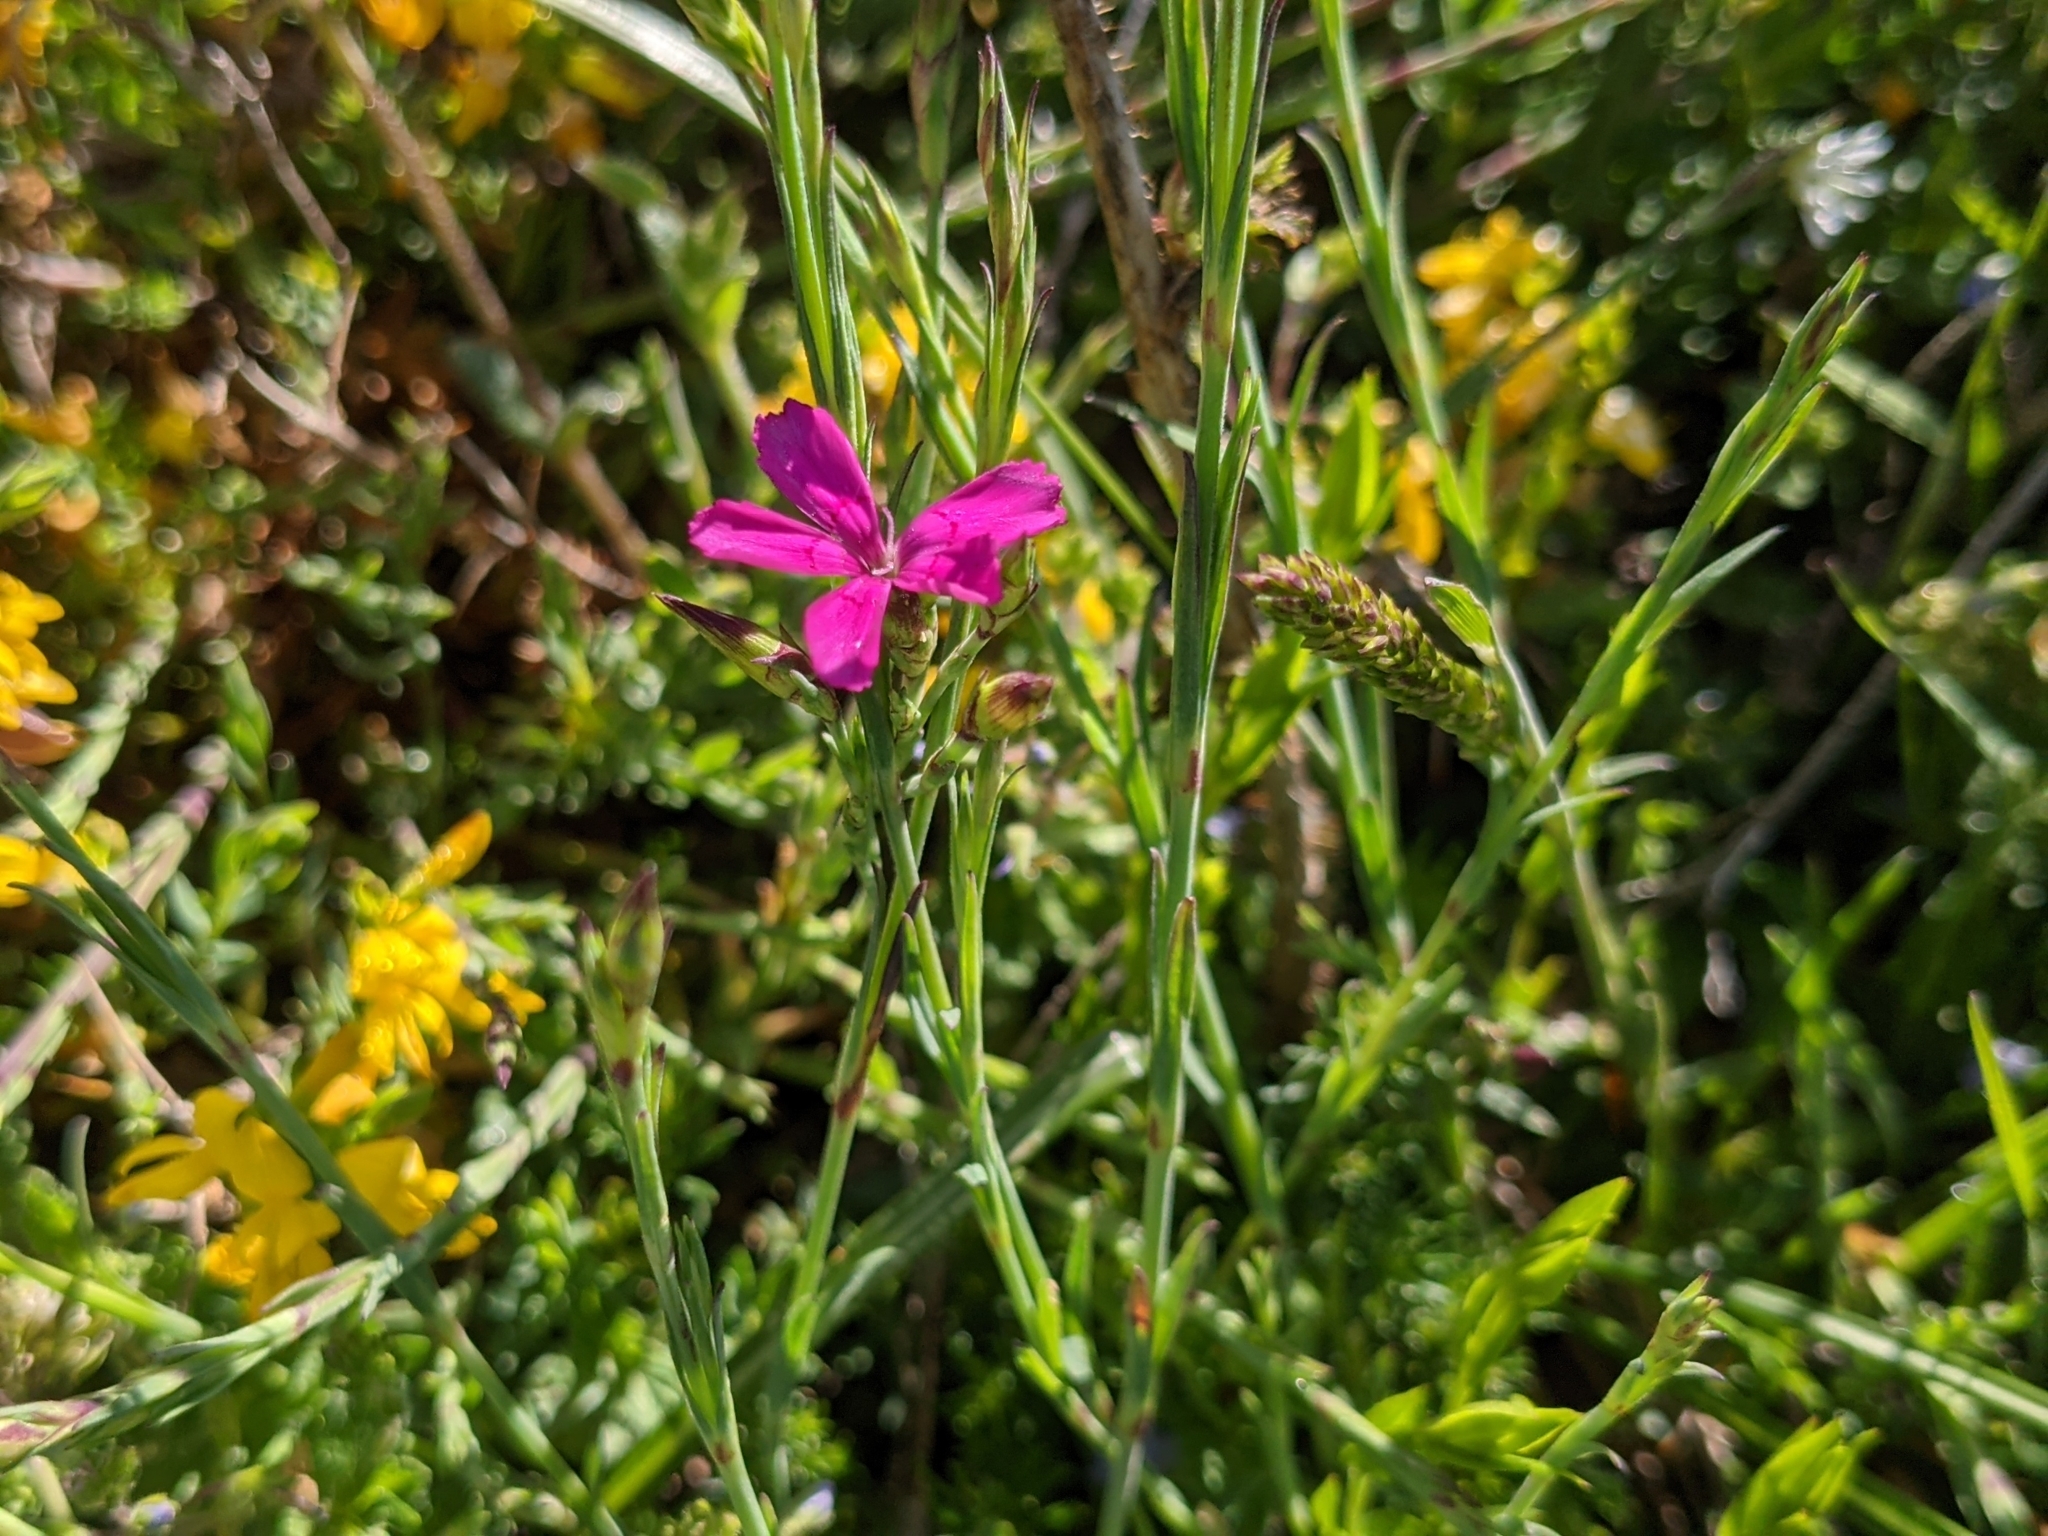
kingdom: Plantae
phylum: Tracheophyta
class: Magnoliopsida
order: Caryophyllales
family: Caryophyllaceae
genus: Dianthus
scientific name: Dianthus deltoides
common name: Maiden pink
